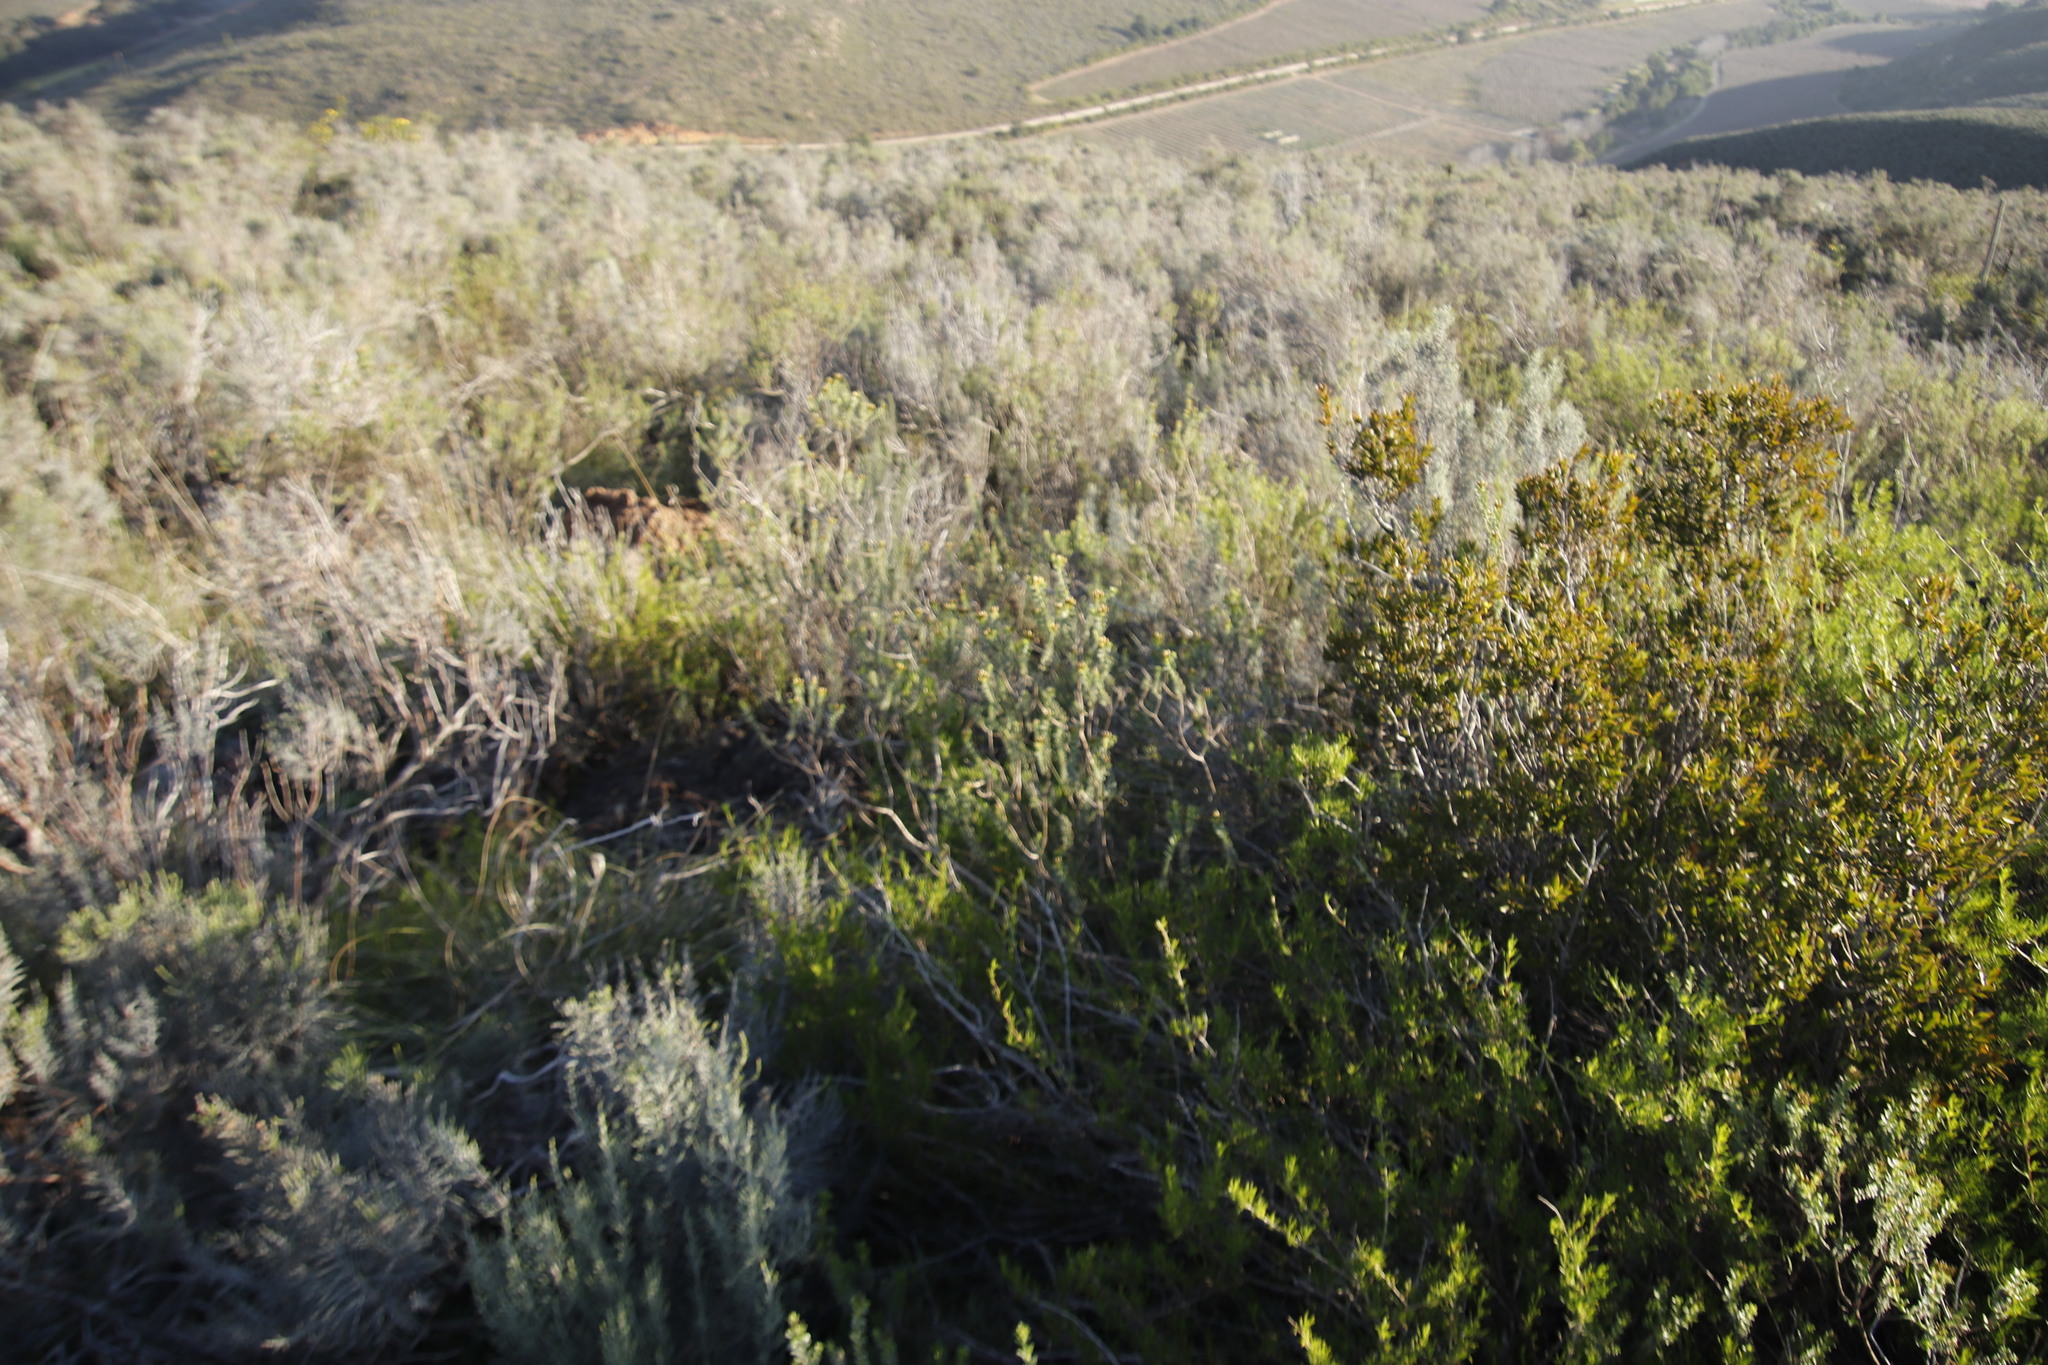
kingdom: Plantae
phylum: Tracheophyta
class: Magnoliopsida
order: Asterales
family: Asteraceae
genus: Dicerothamnus
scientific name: Dicerothamnus rhinocerotis
